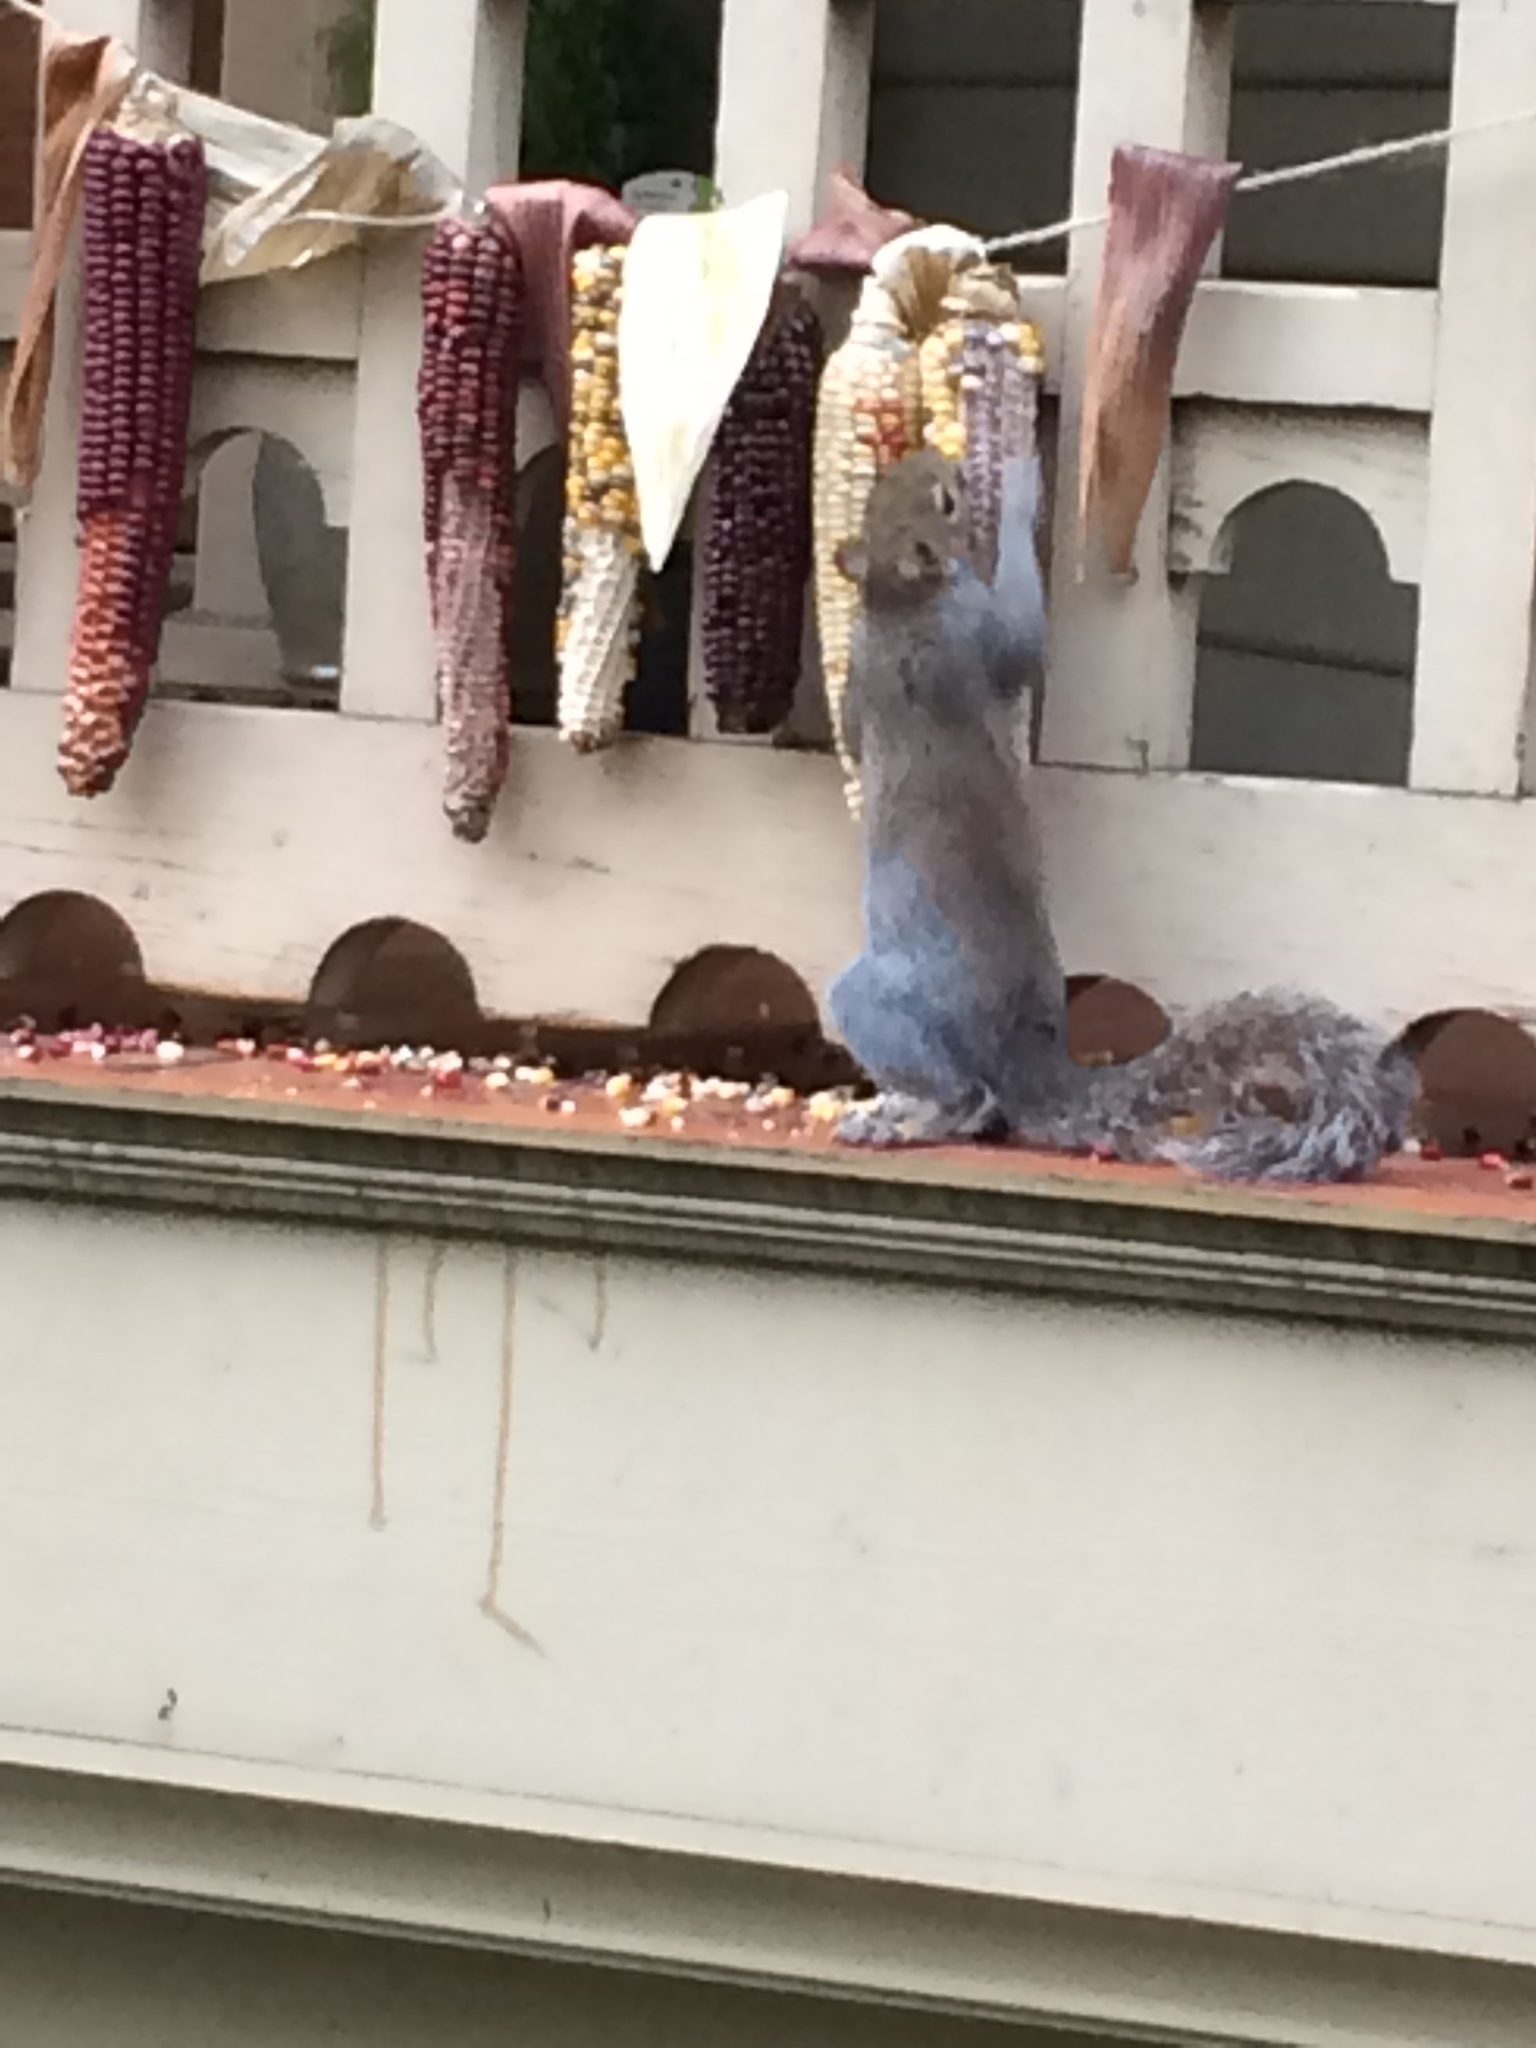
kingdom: Animalia
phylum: Chordata
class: Mammalia
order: Rodentia
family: Sciuridae
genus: Sciurus
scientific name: Sciurus carolinensis
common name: Eastern gray squirrel
